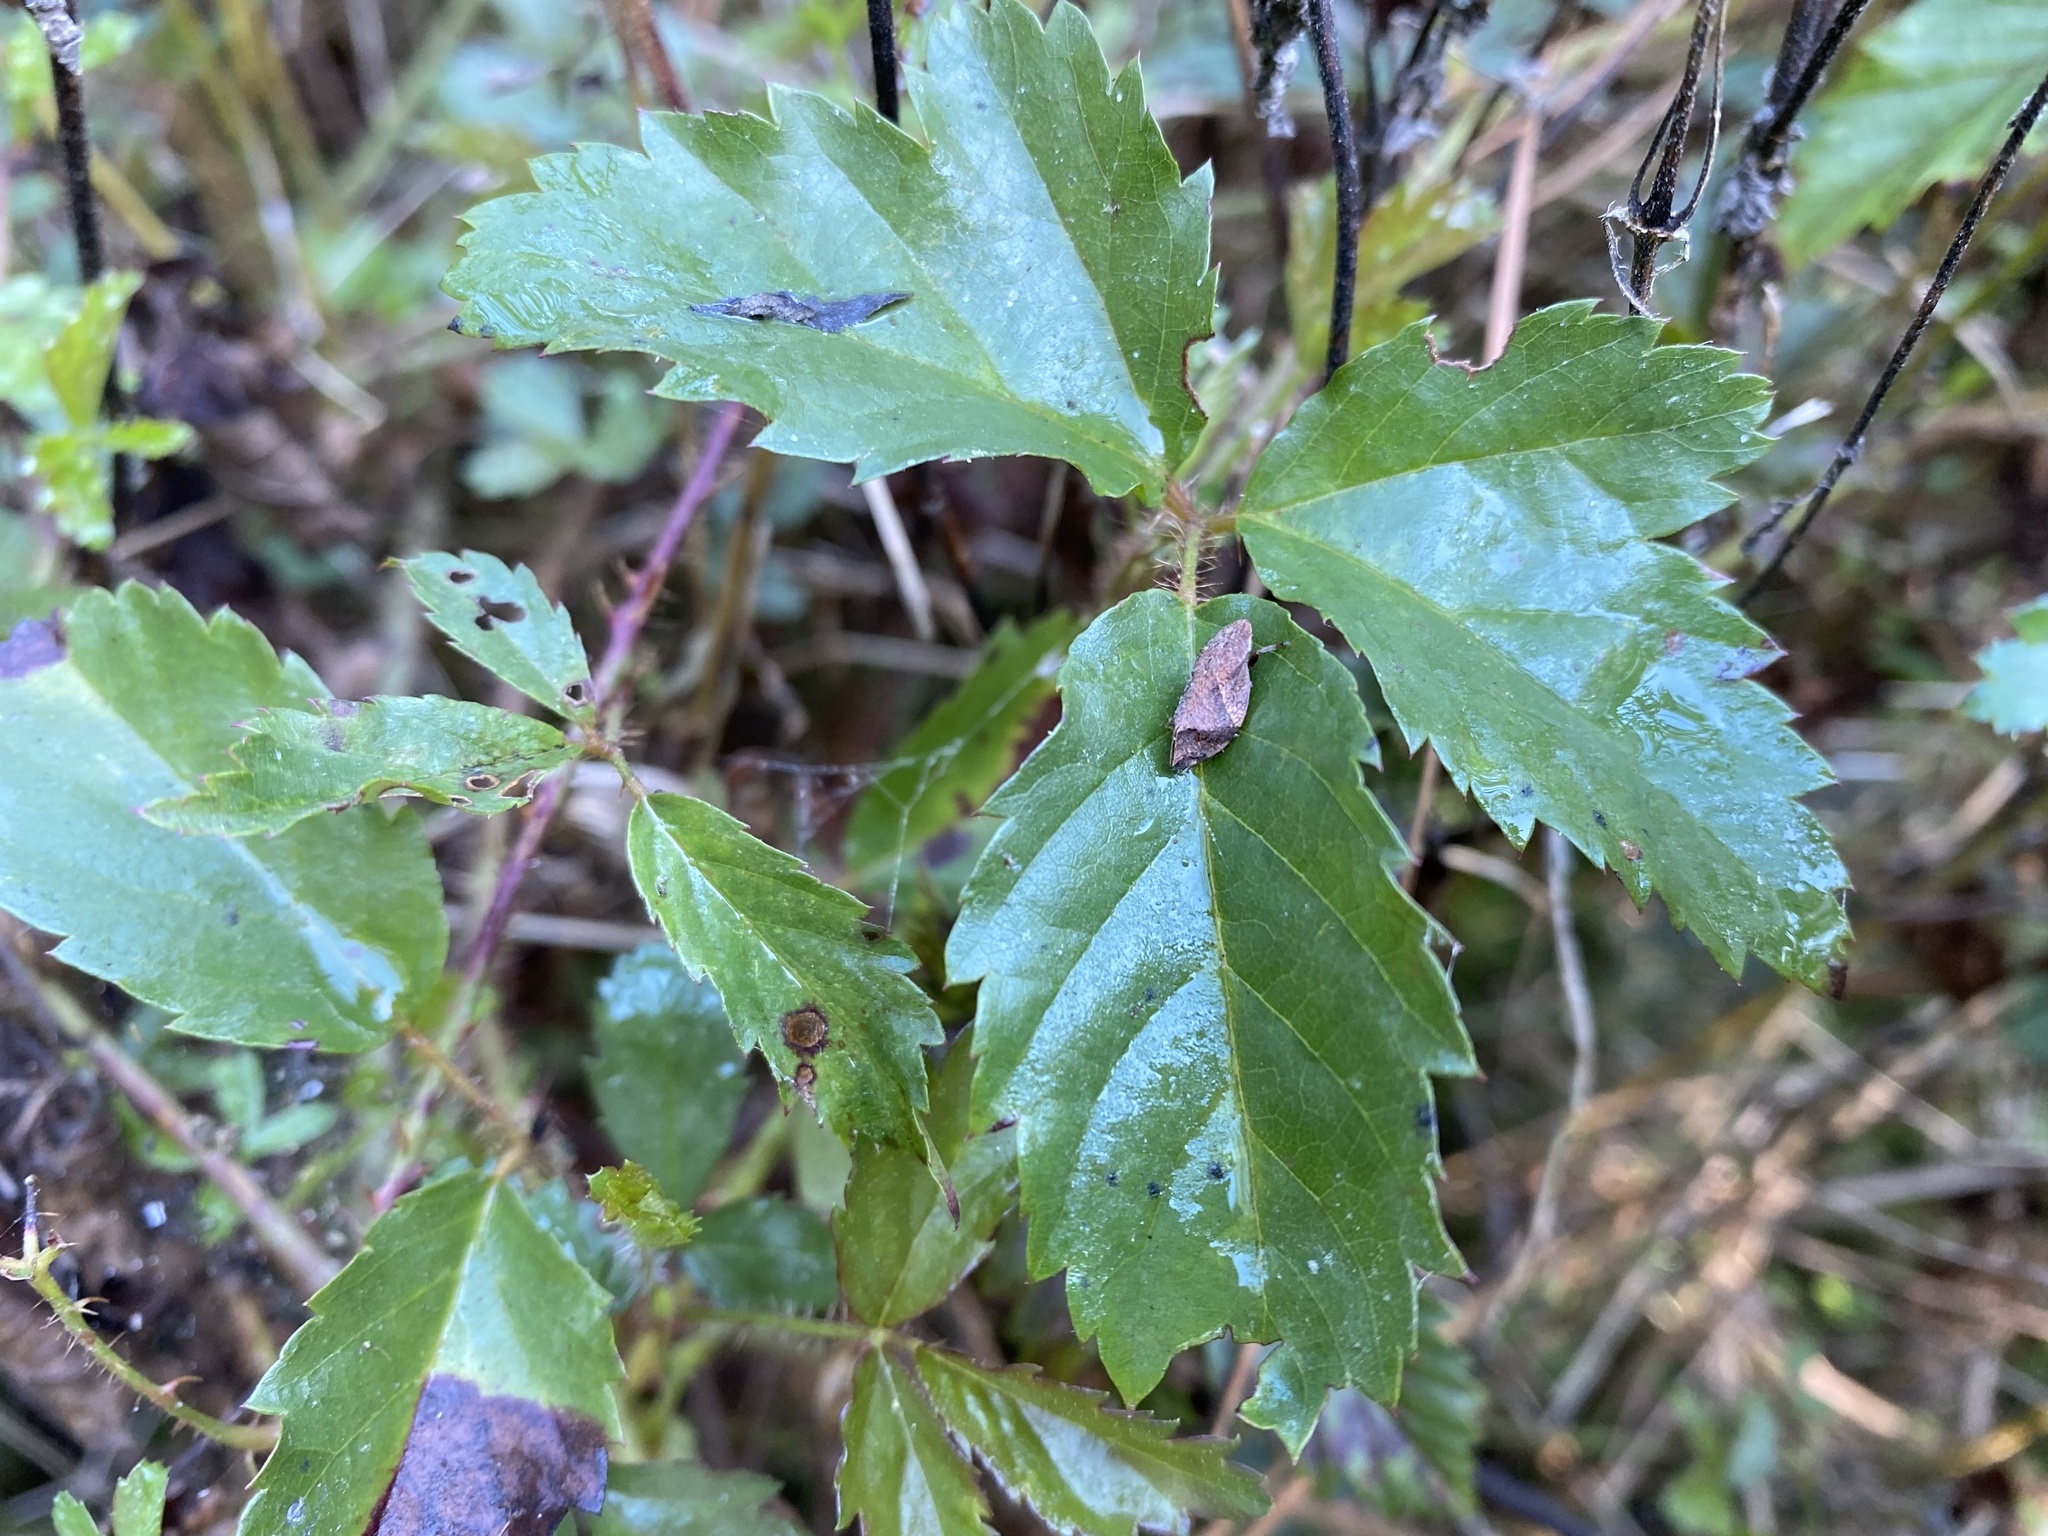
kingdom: Animalia
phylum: Arthropoda
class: Insecta
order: Hemiptera
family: Aphrophoridae
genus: Lepyronia
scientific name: Lepyronia quadrangularis
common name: Diamond-backed spittlebug
